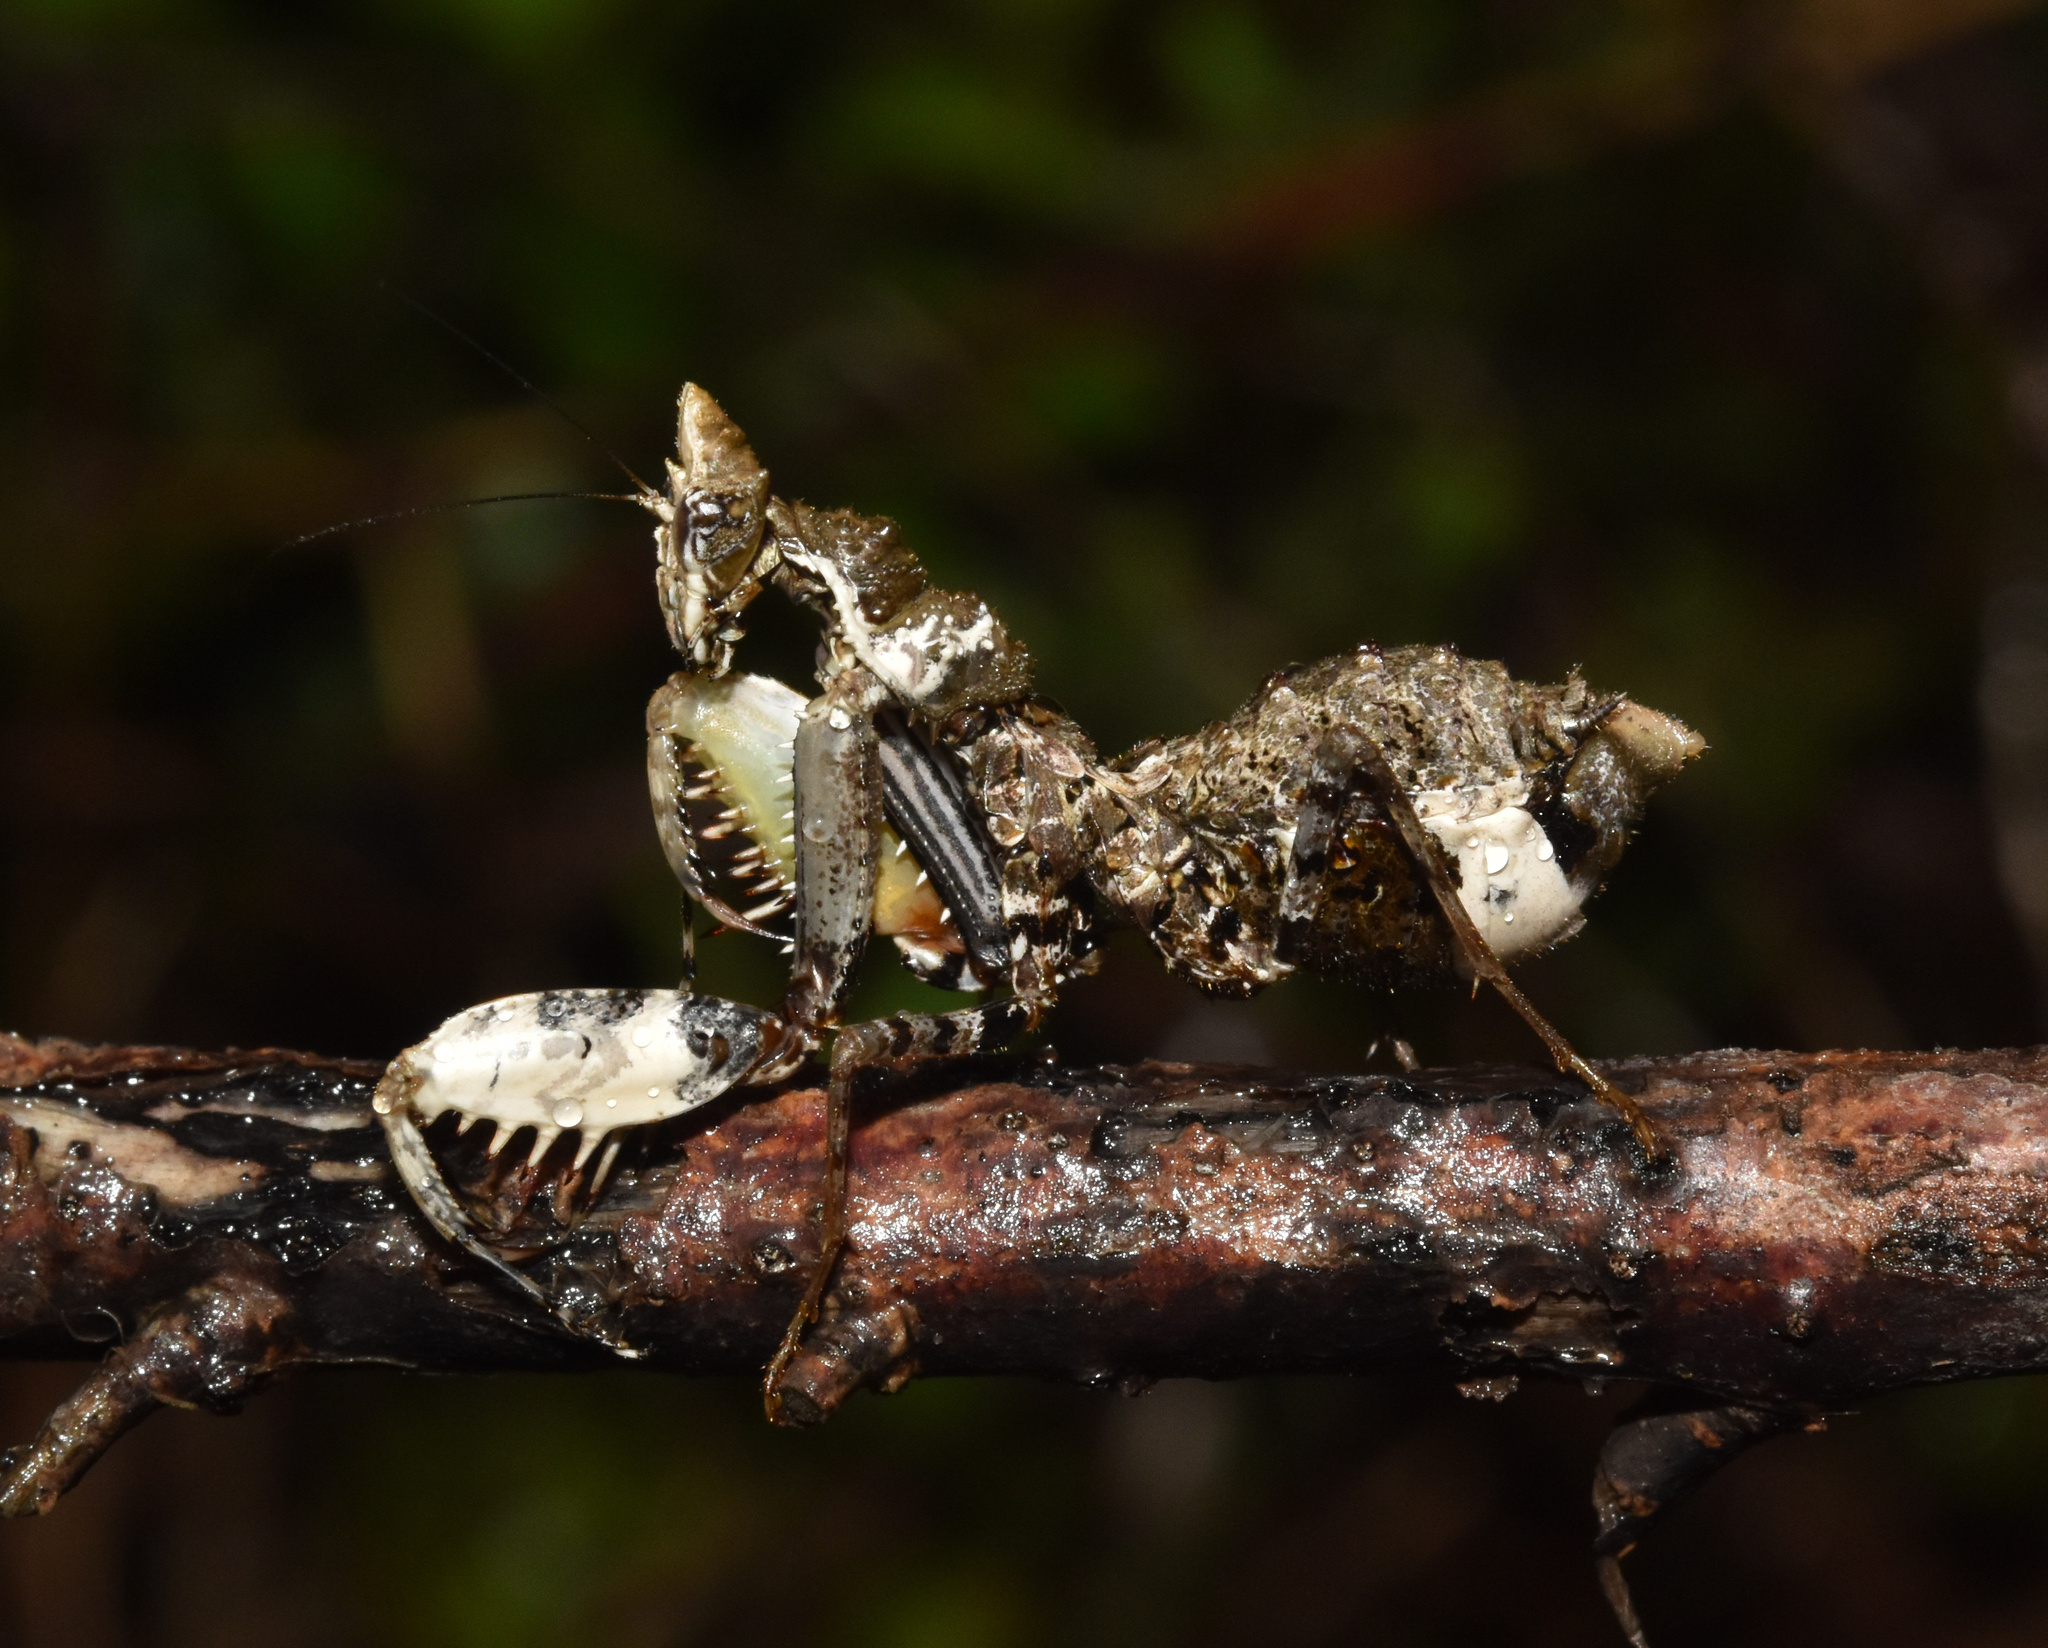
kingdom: Animalia
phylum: Arthropoda
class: Insecta
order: Mantodea
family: Hymenopodidae
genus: Oxypilus
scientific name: Oxypilus capensis
